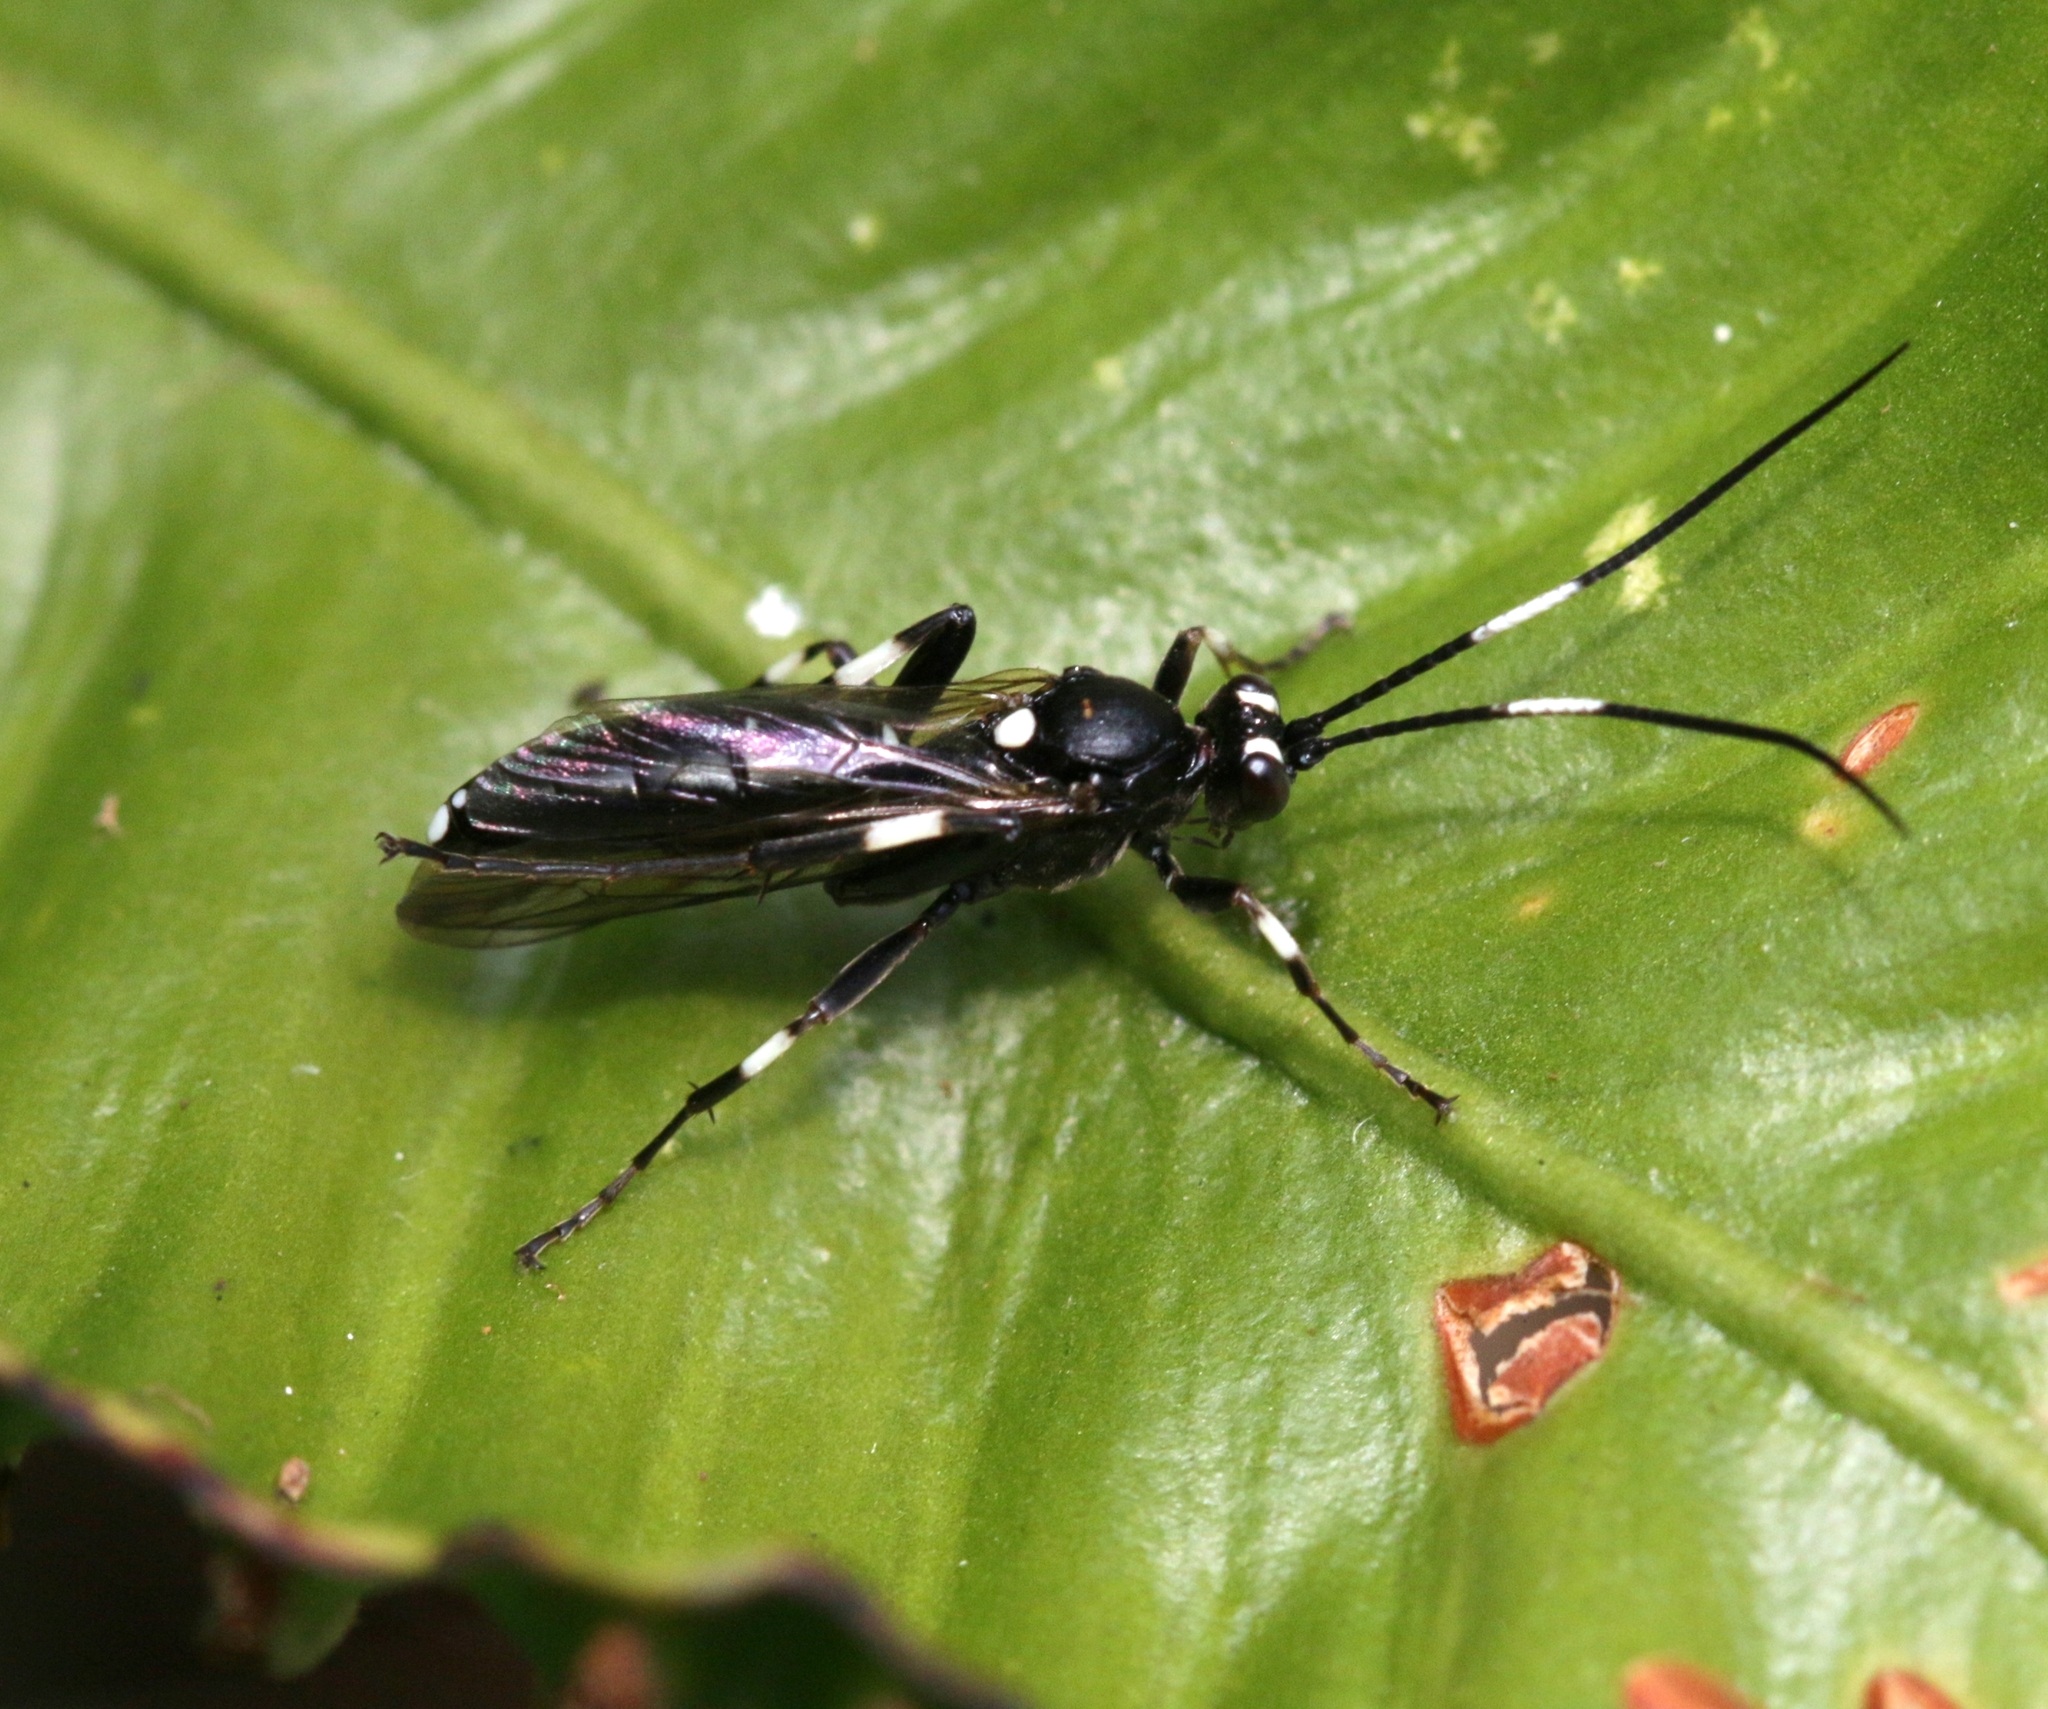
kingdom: Animalia
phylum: Arthropoda
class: Insecta
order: Hymenoptera
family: Ichneumonidae
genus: Achaius
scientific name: Achaius oratorius
